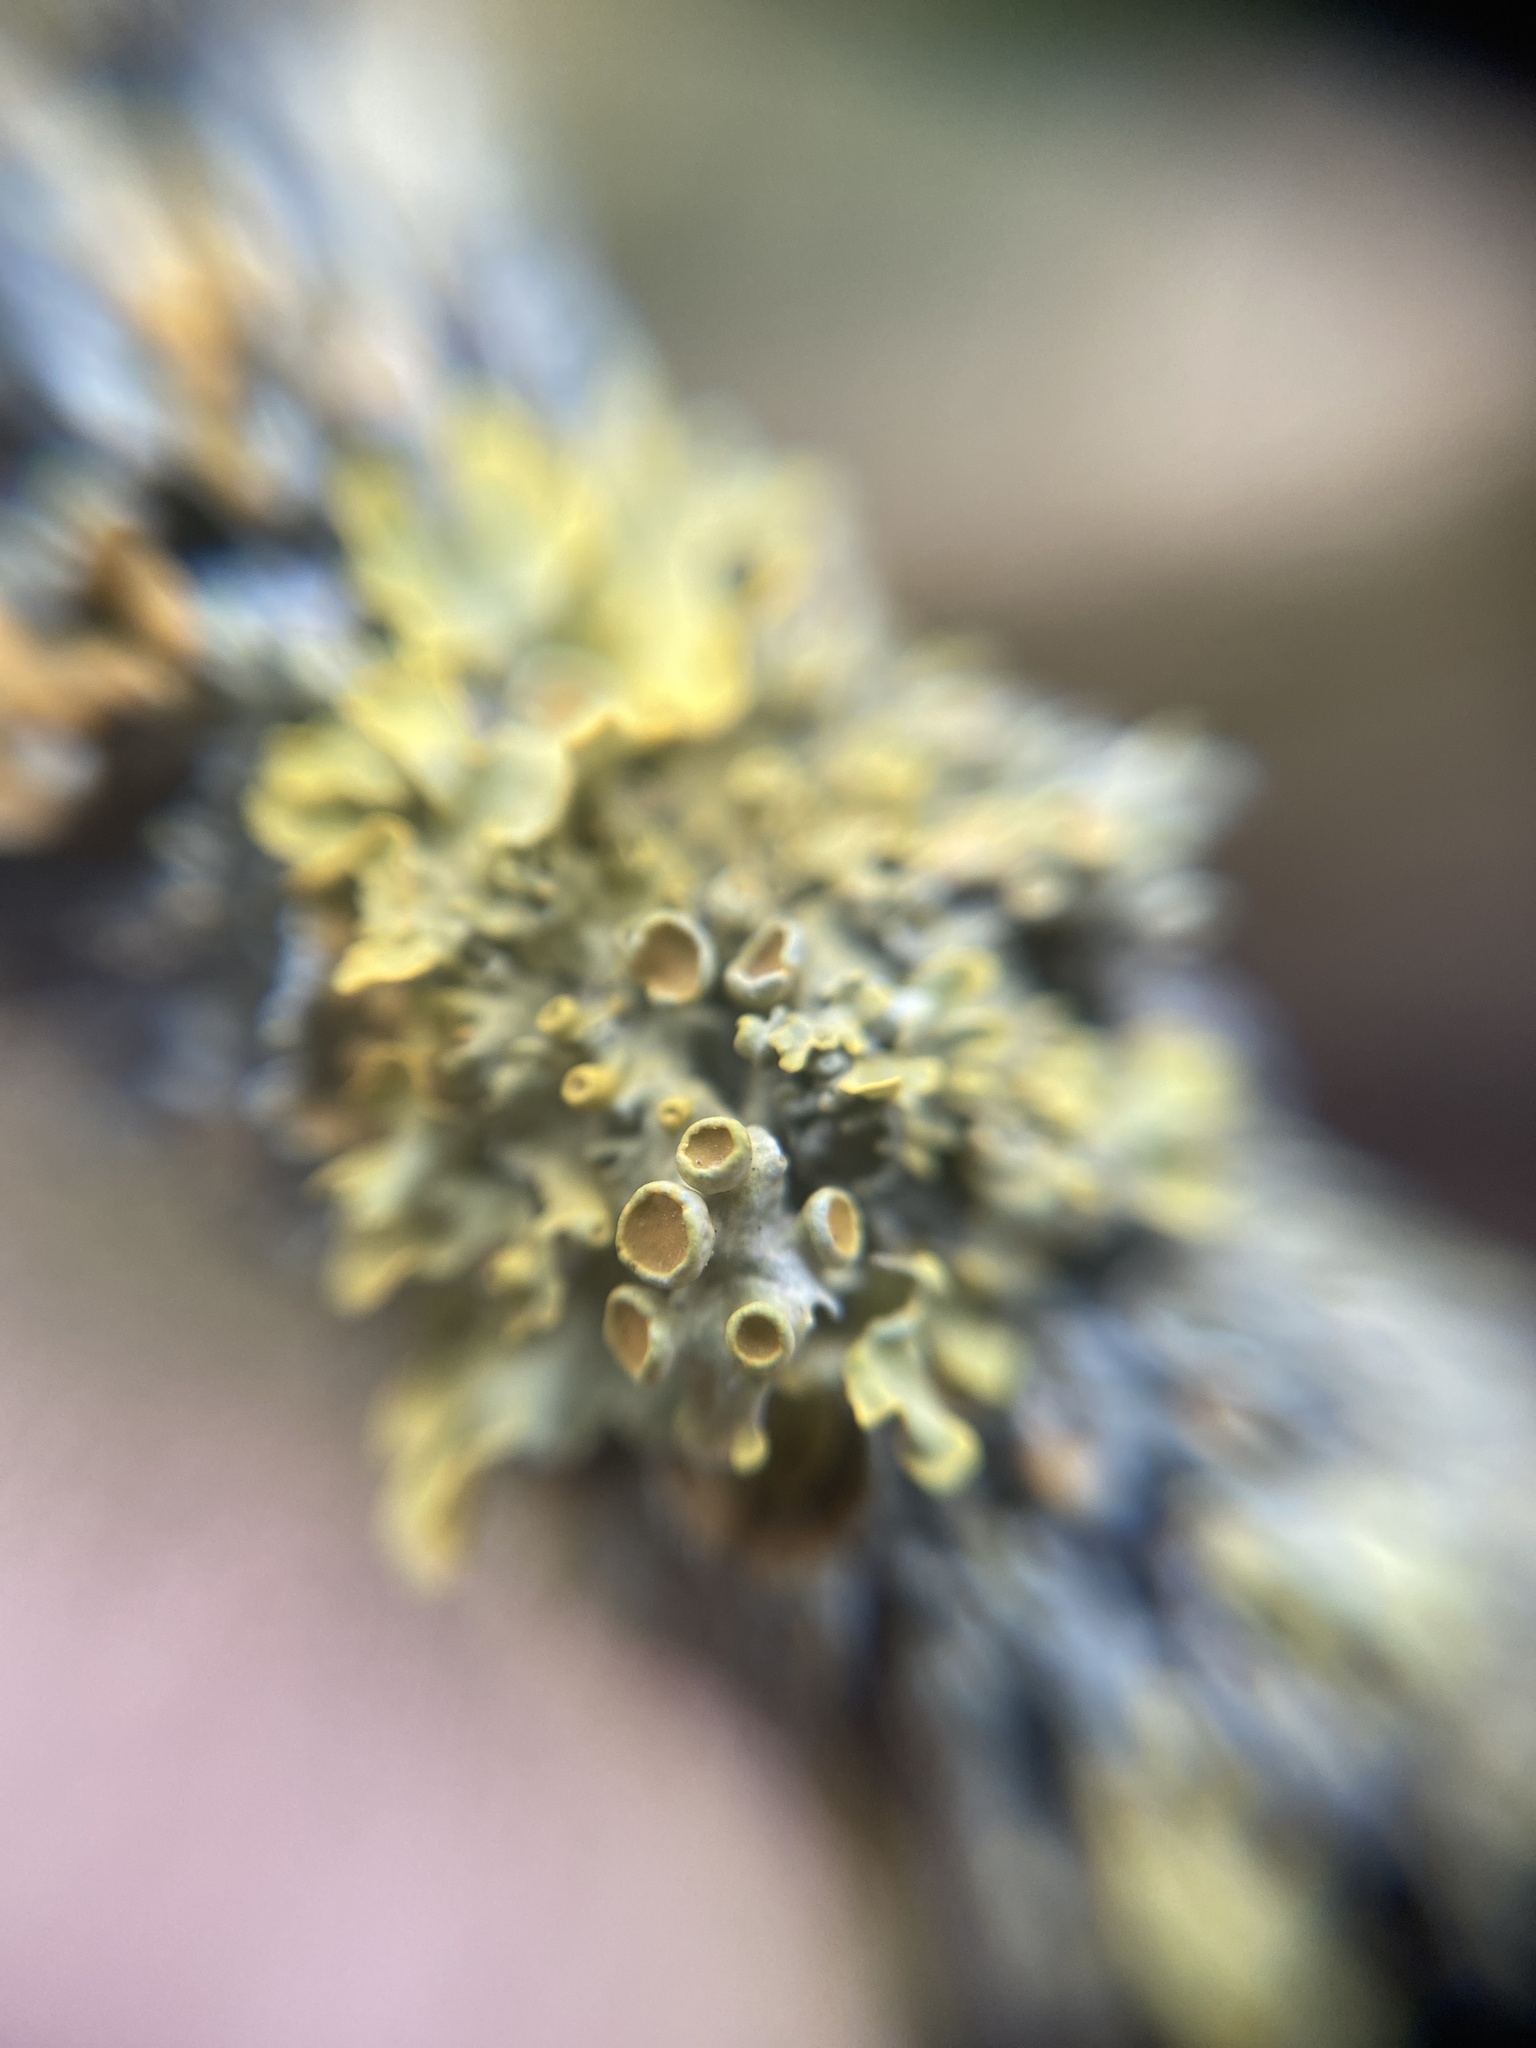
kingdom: Fungi
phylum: Ascomycota
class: Lecanoromycetes
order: Teloschistales
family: Teloschistaceae
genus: Xanthoria
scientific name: Xanthoria parietina
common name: Common orange lichen
